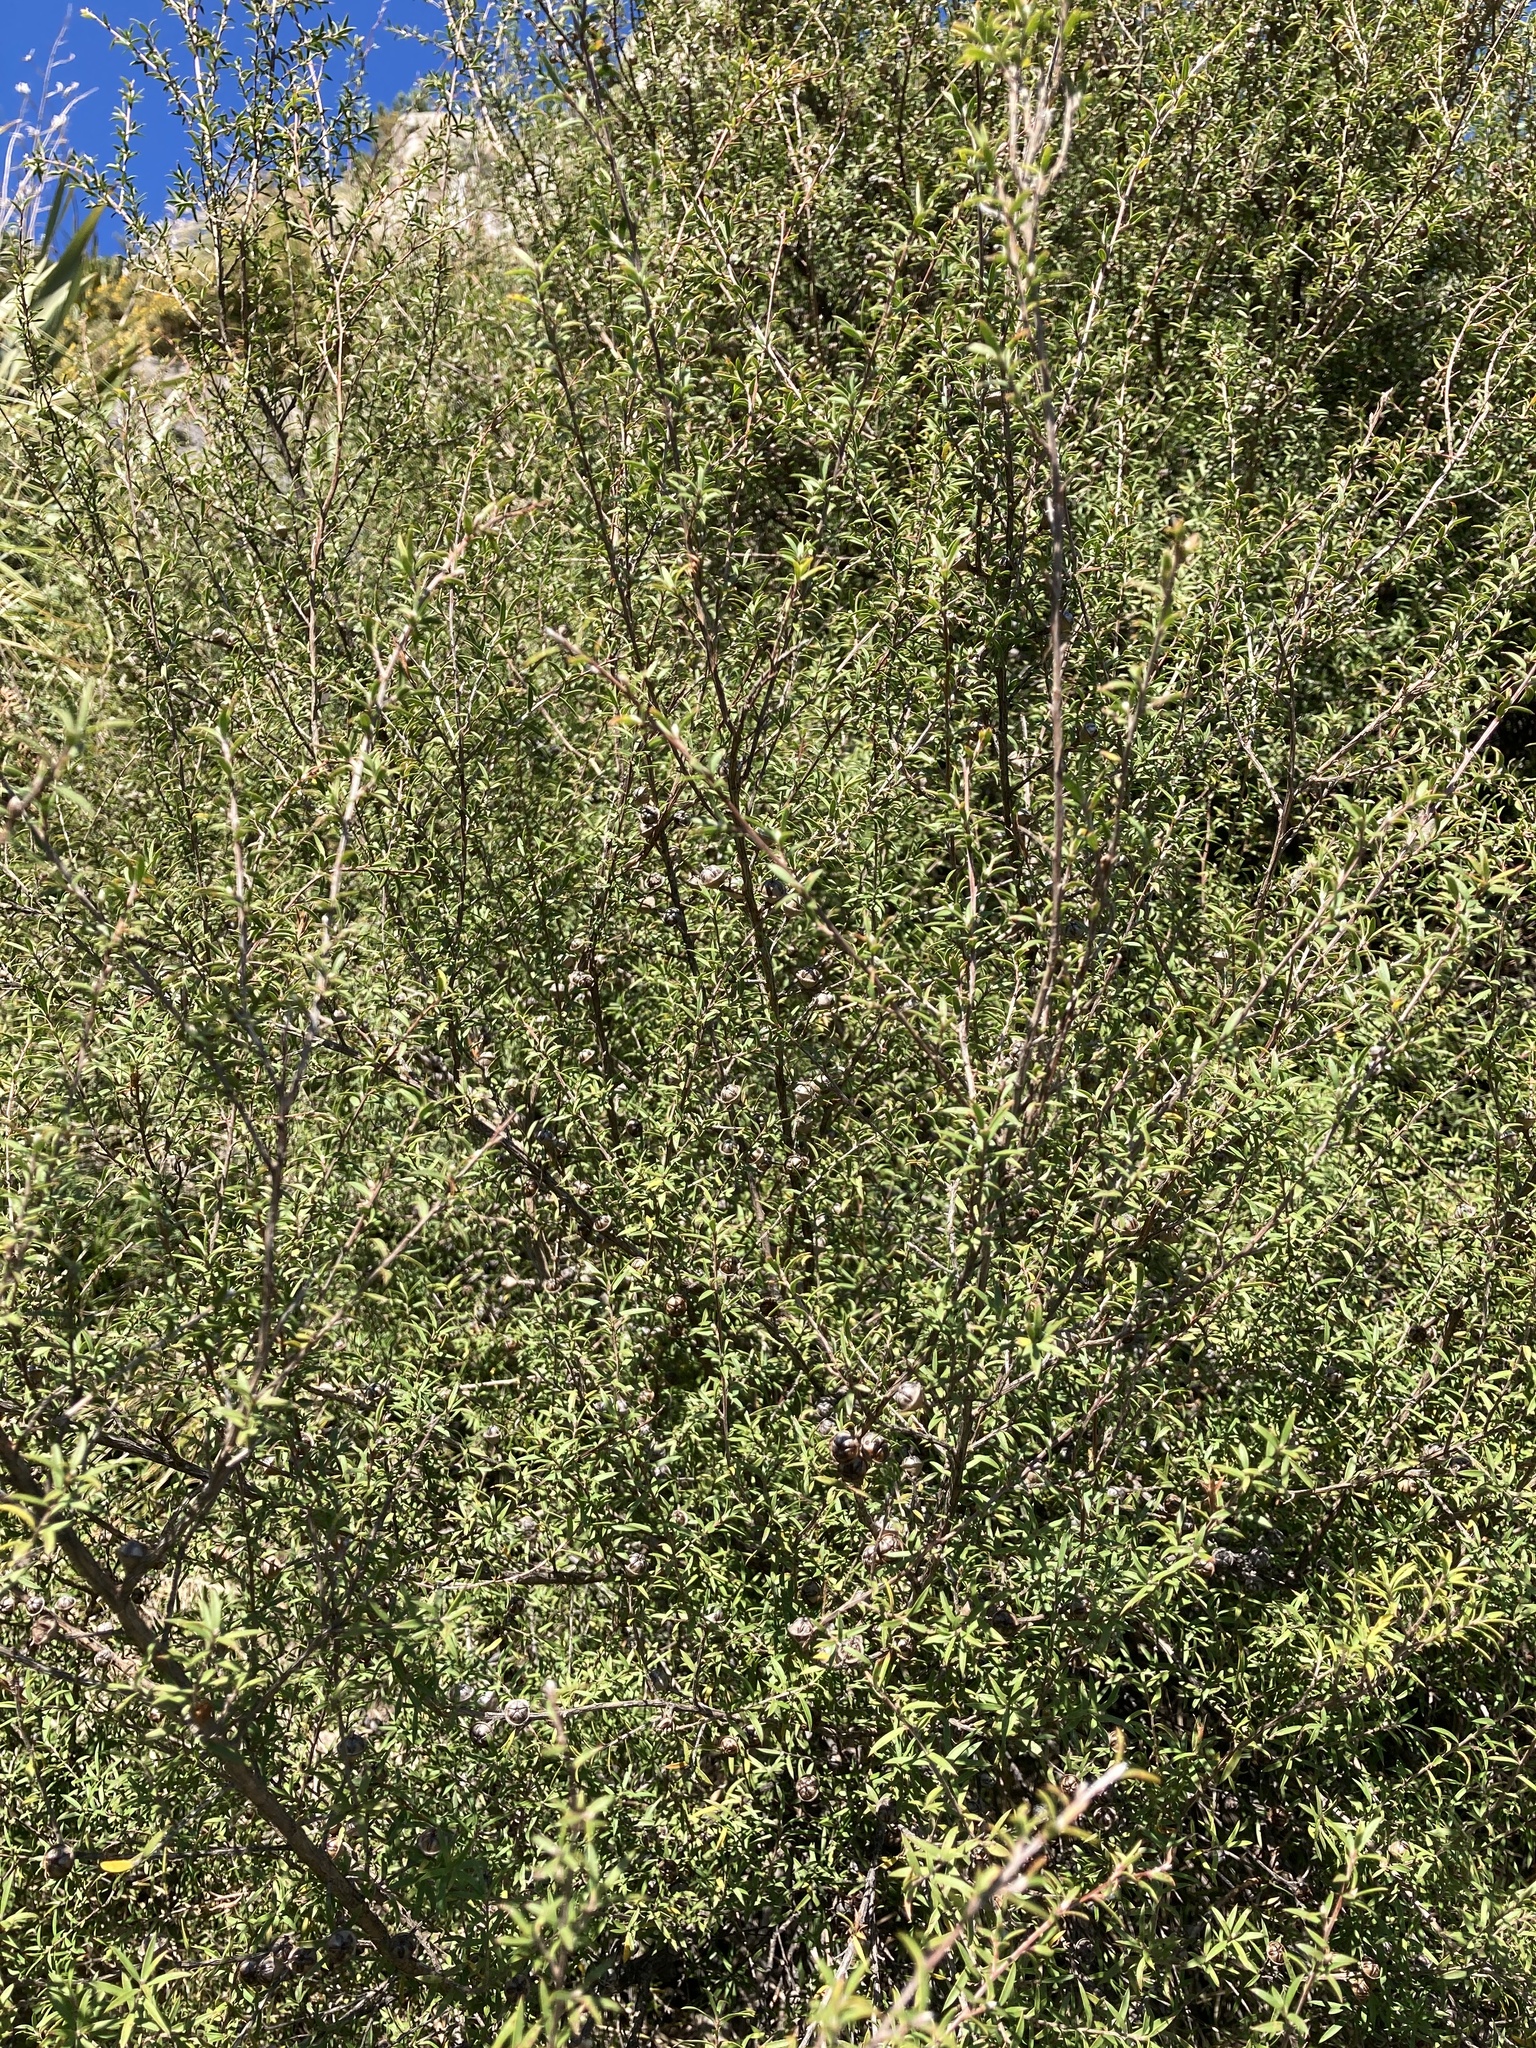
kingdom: Plantae
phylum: Tracheophyta
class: Magnoliopsida
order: Myrtales
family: Myrtaceae
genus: Leptospermum
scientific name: Leptospermum scoparium
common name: Broom tea-tree
